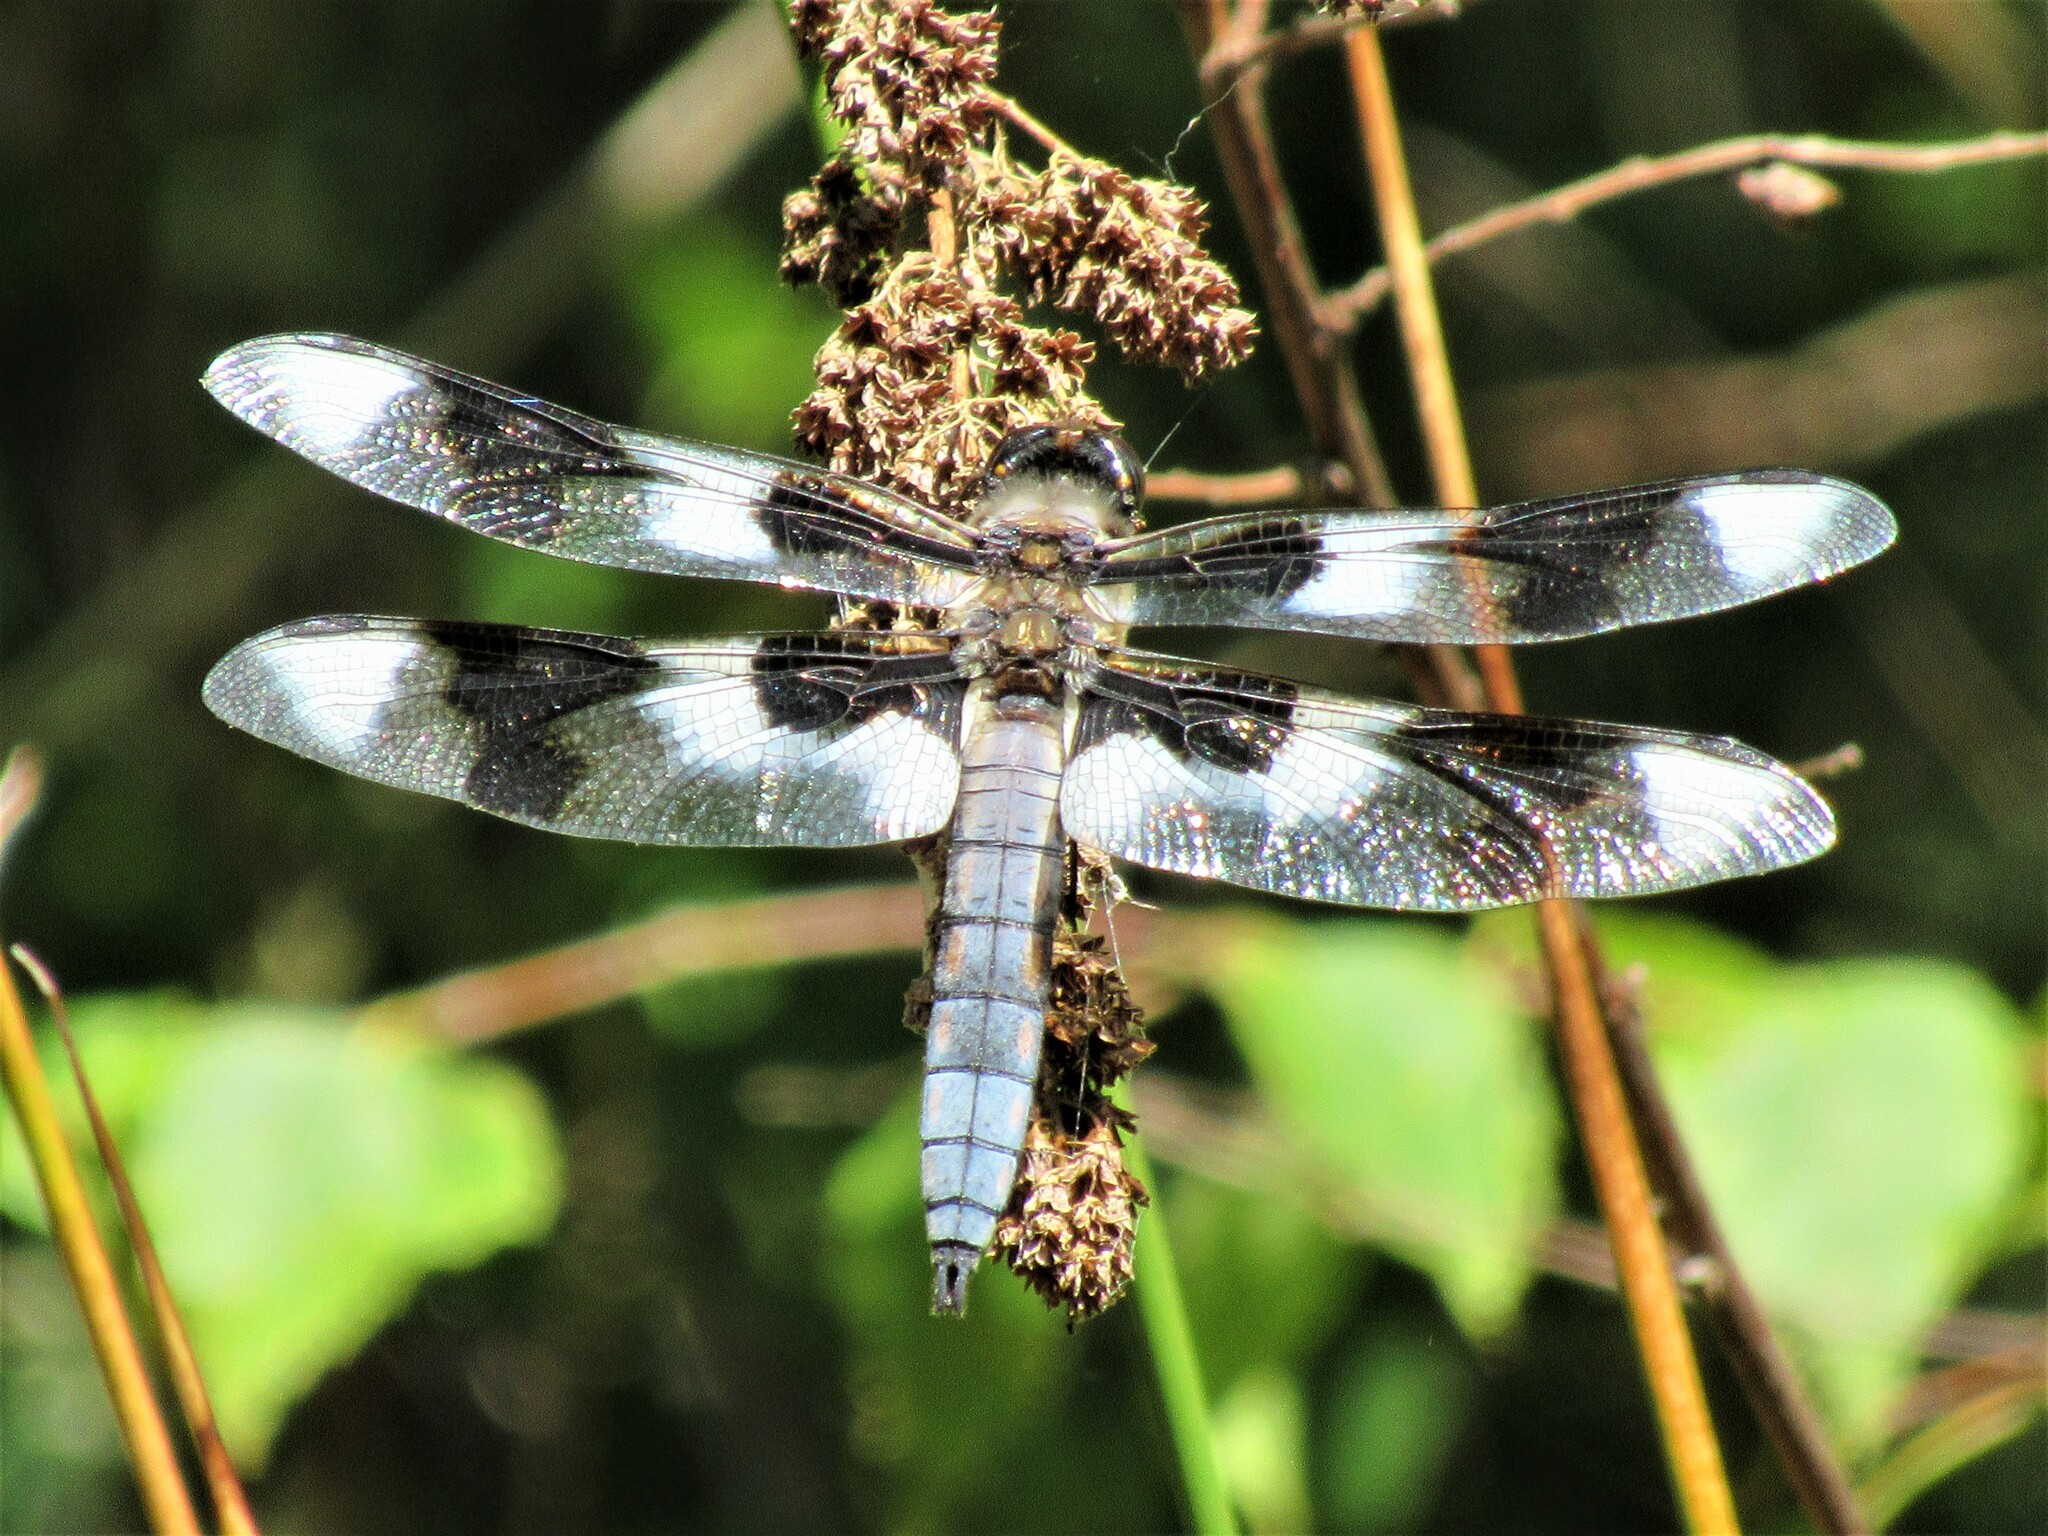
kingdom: Animalia
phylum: Arthropoda
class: Insecta
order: Odonata
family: Libellulidae
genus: Libellula
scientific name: Libellula forensis
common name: Eight-spotted skimmer
